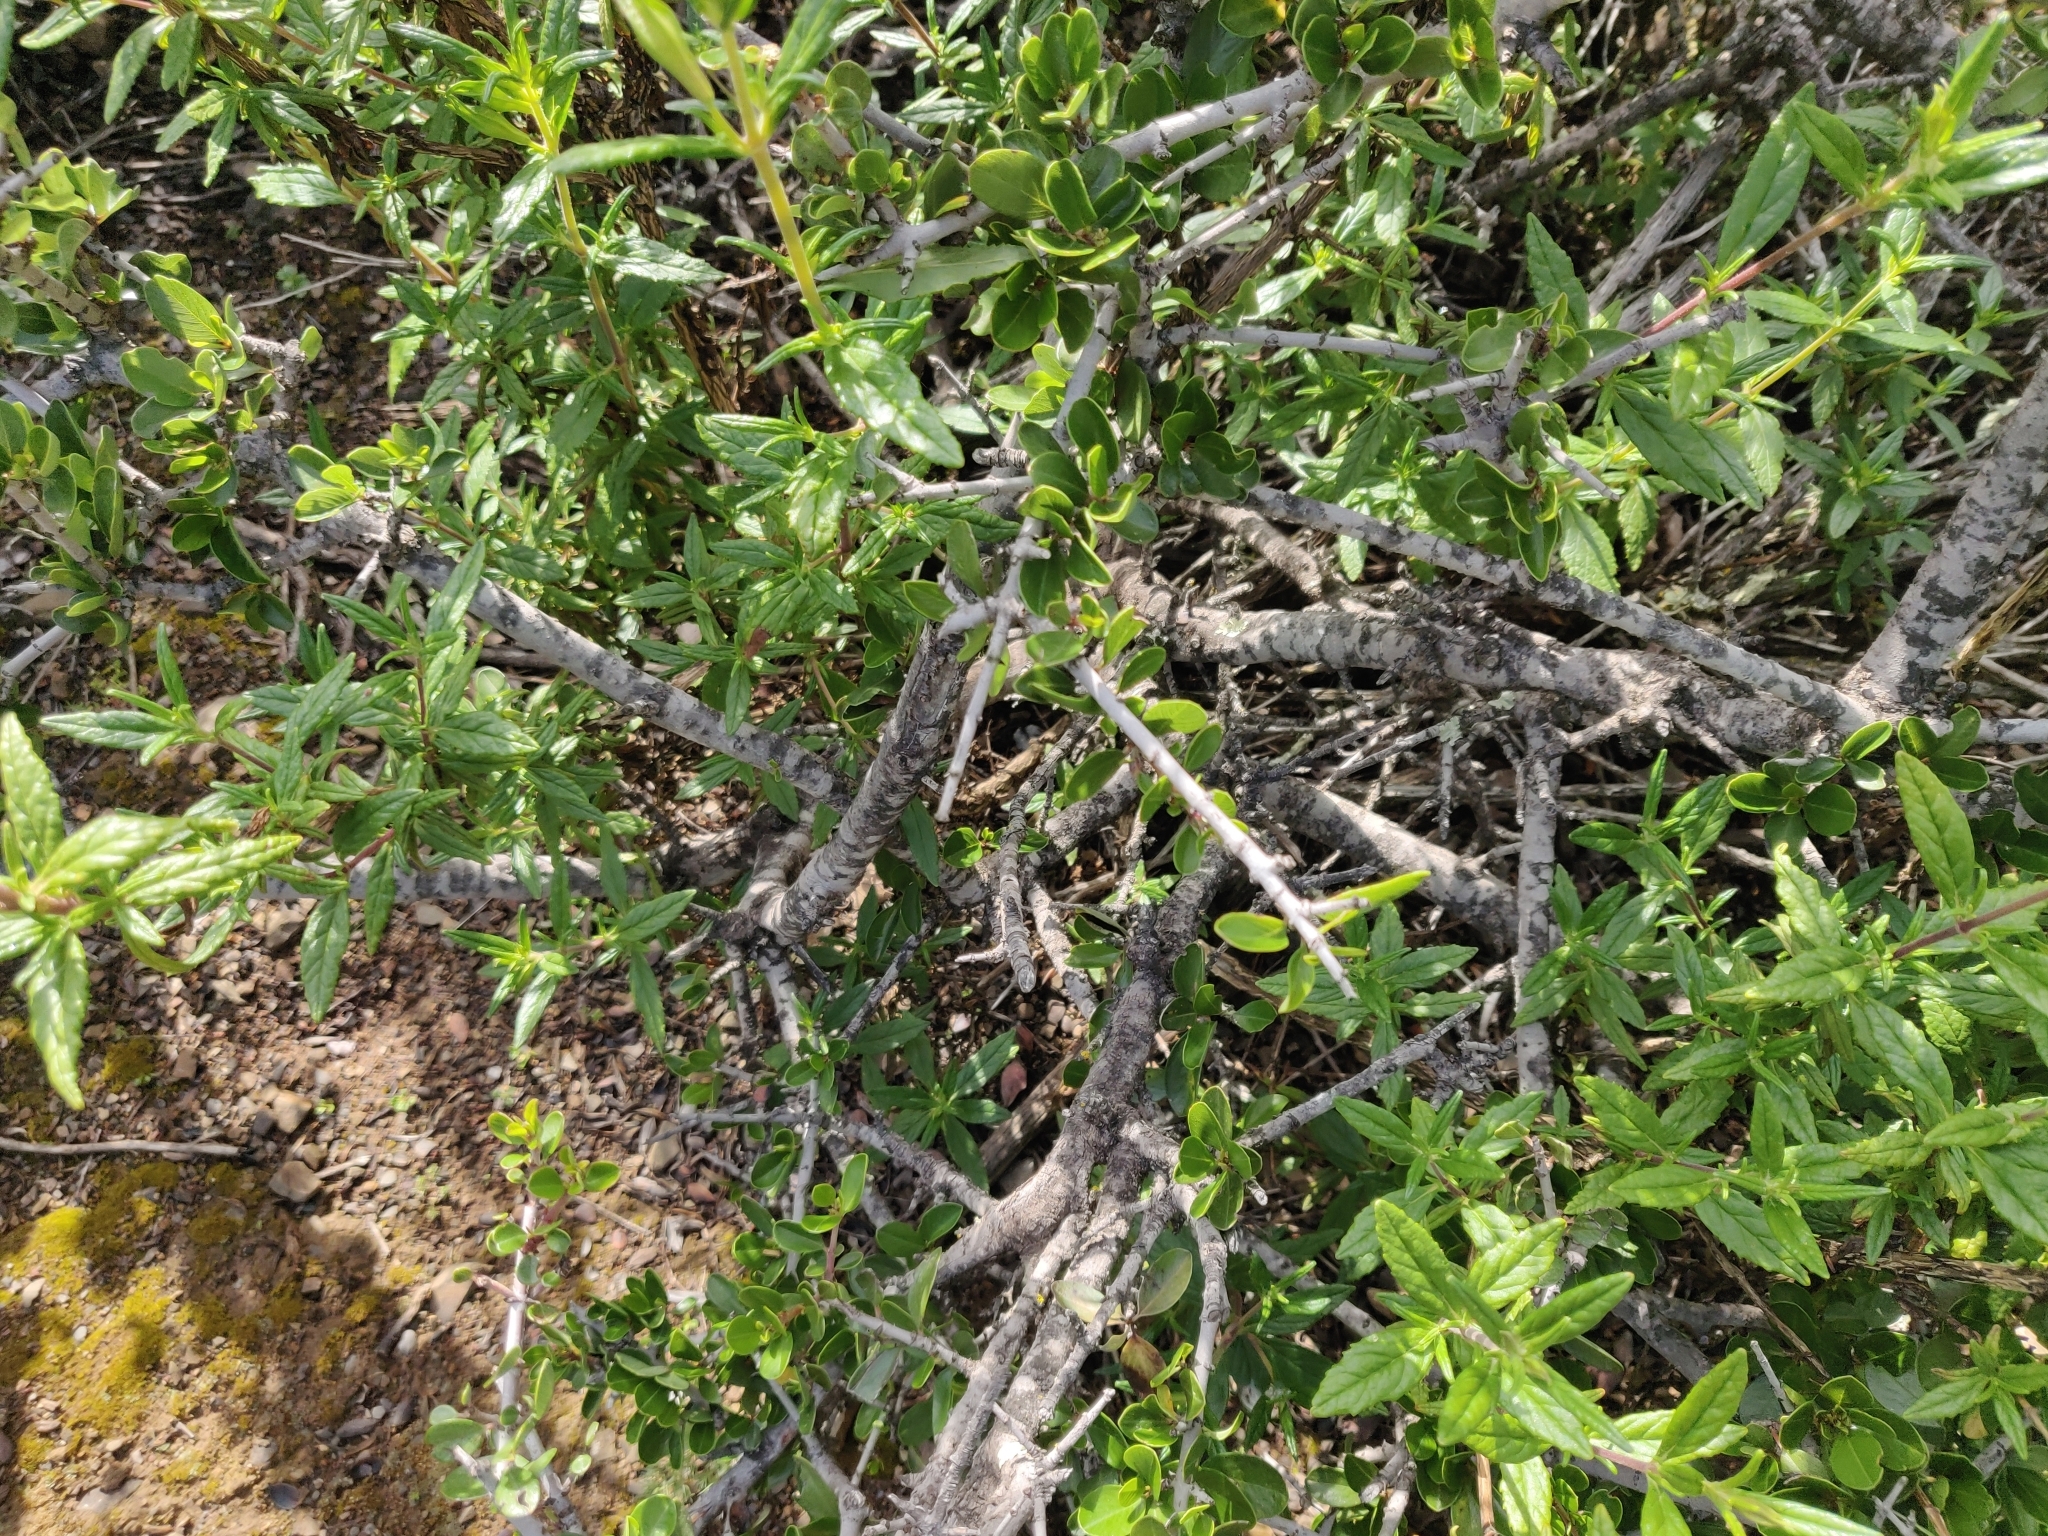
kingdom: Plantae
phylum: Tracheophyta
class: Magnoliopsida
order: Rosales
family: Rhamnaceae
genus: Ceanothus
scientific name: Ceanothus cuneatus
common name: Cuneate ceanothus
